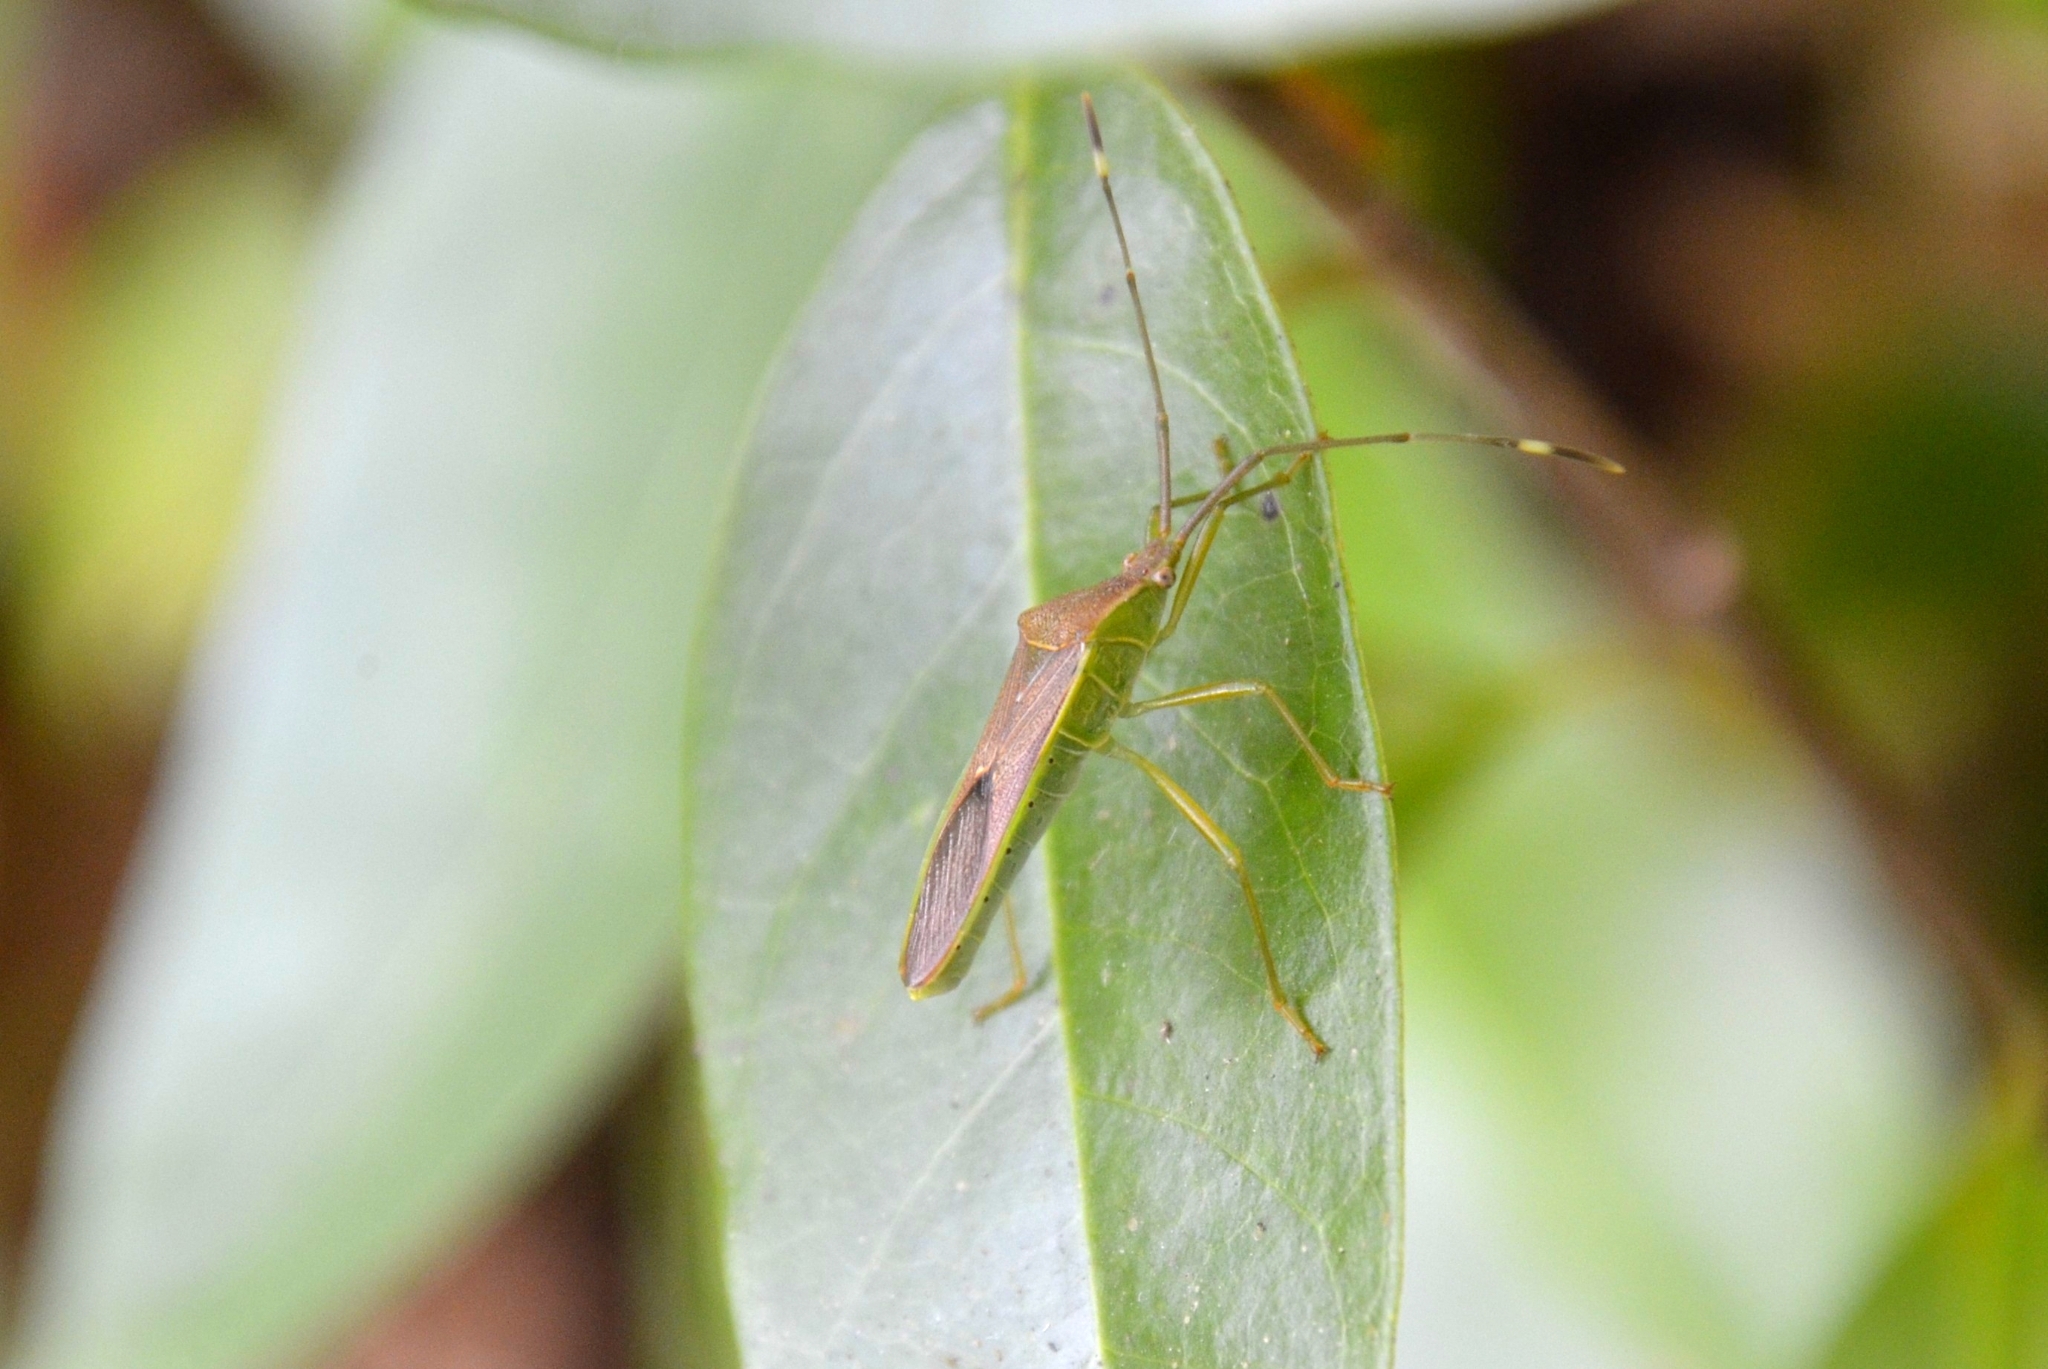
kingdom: Animalia
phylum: Arthropoda
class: Insecta
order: Hemiptera
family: Coreidae
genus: Homoeocerus
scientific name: Homoeocerus relatus
